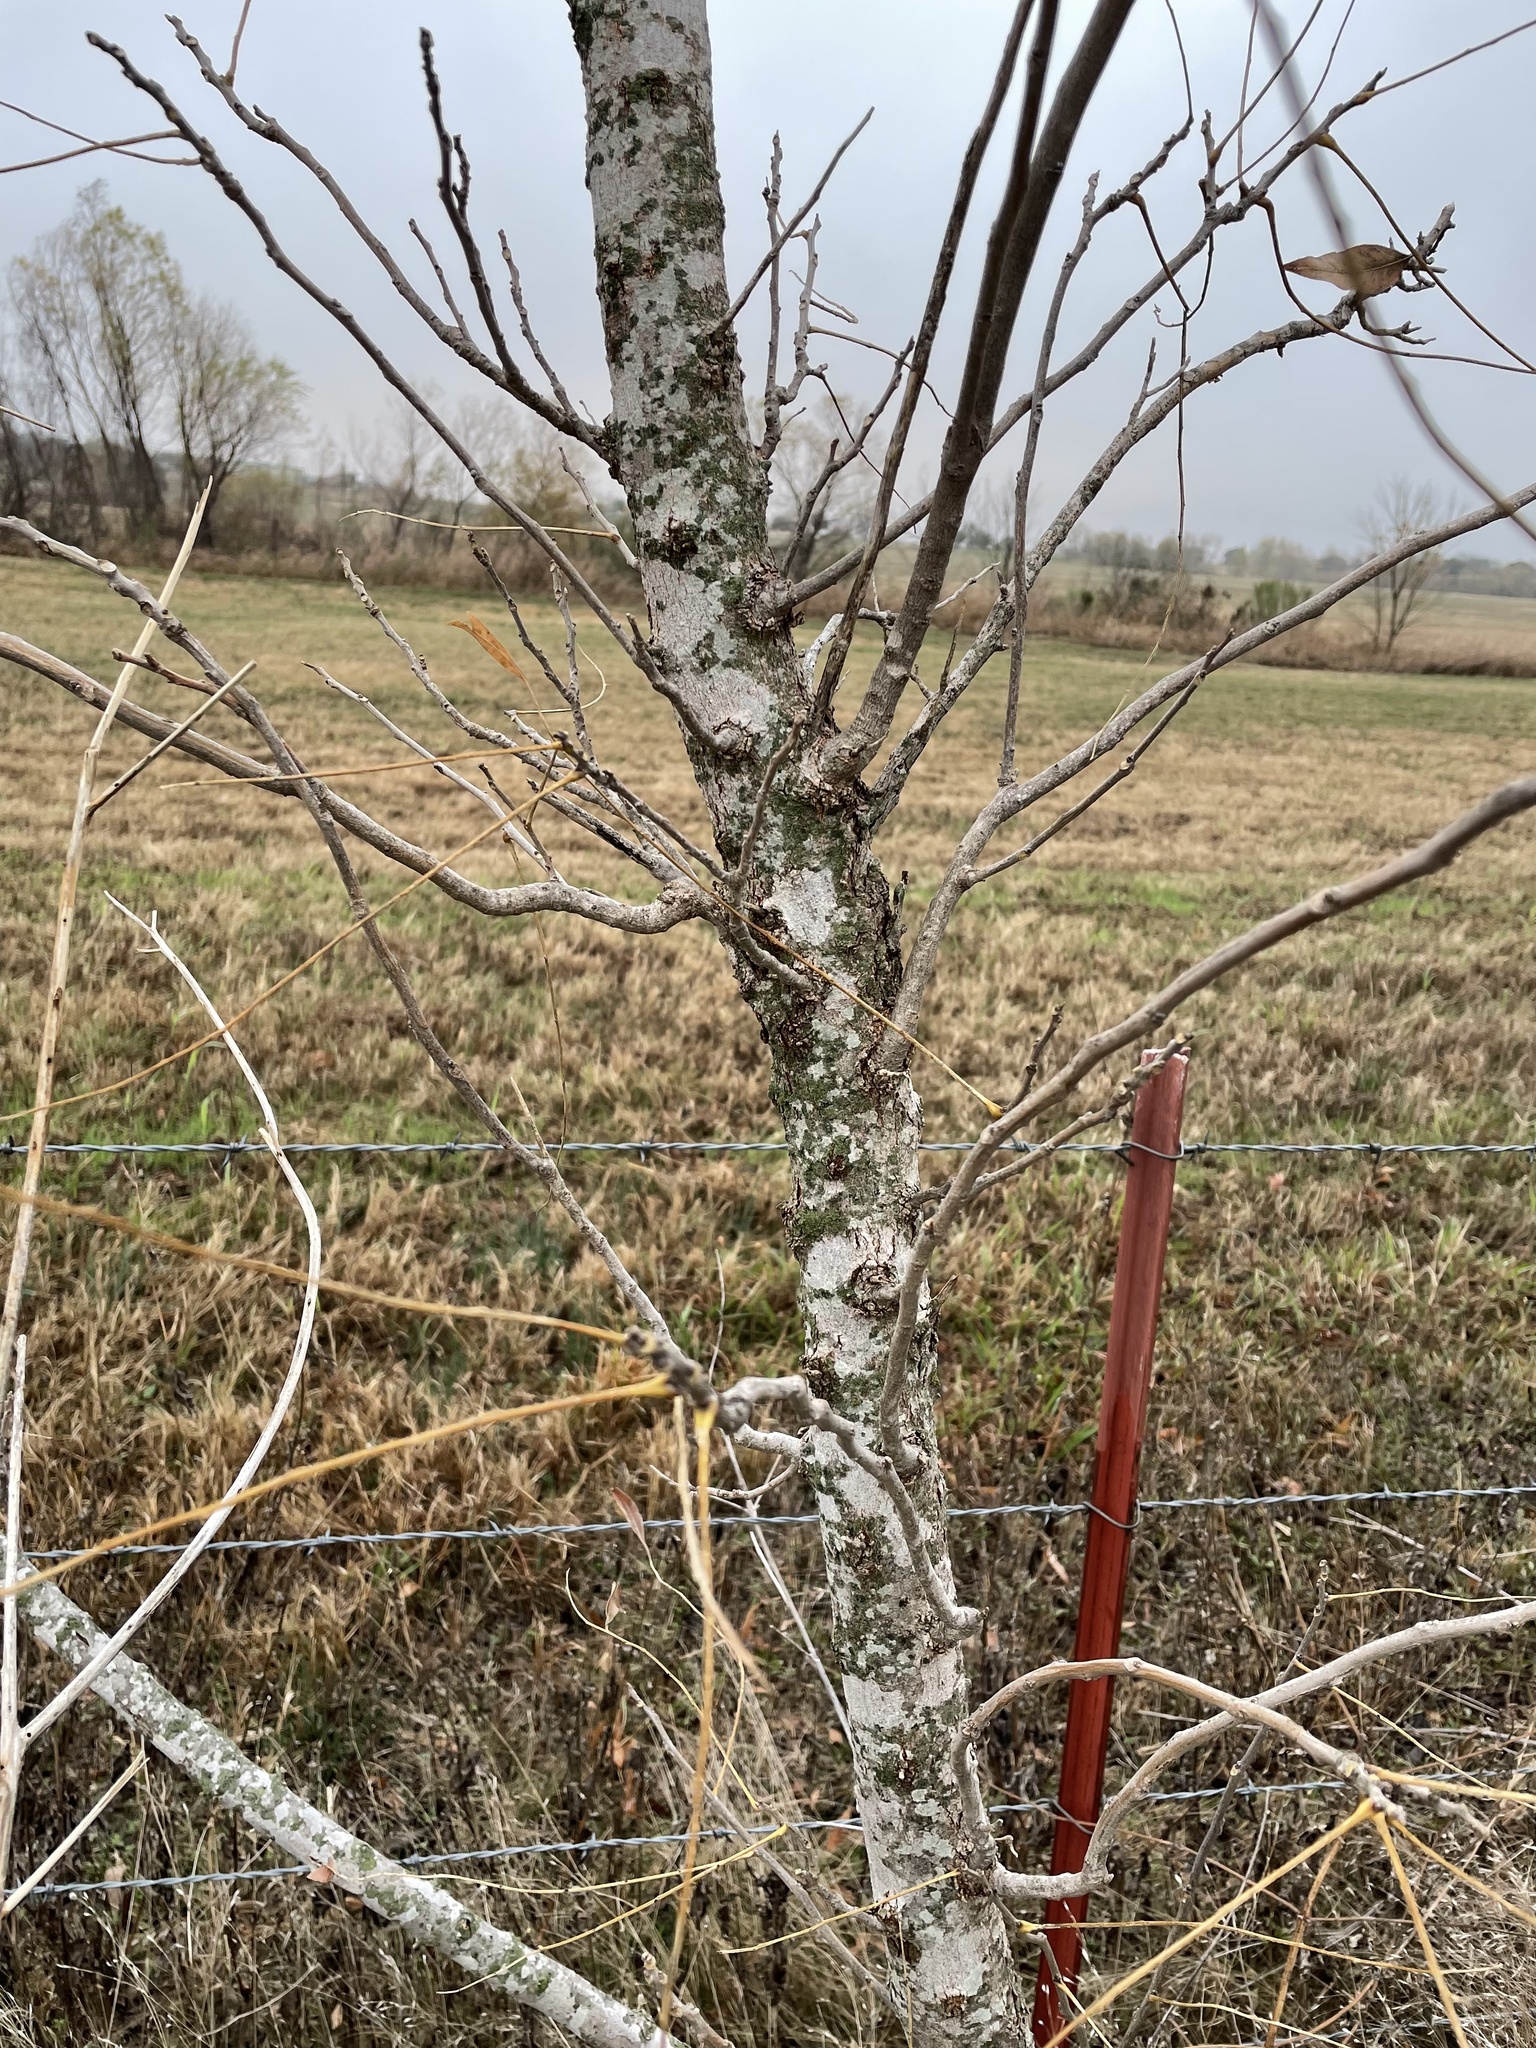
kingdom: Plantae
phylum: Tracheophyta
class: Magnoliopsida
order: Sapindales
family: Sapindaceae
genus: Sapindus
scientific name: Sapindus drummondii
